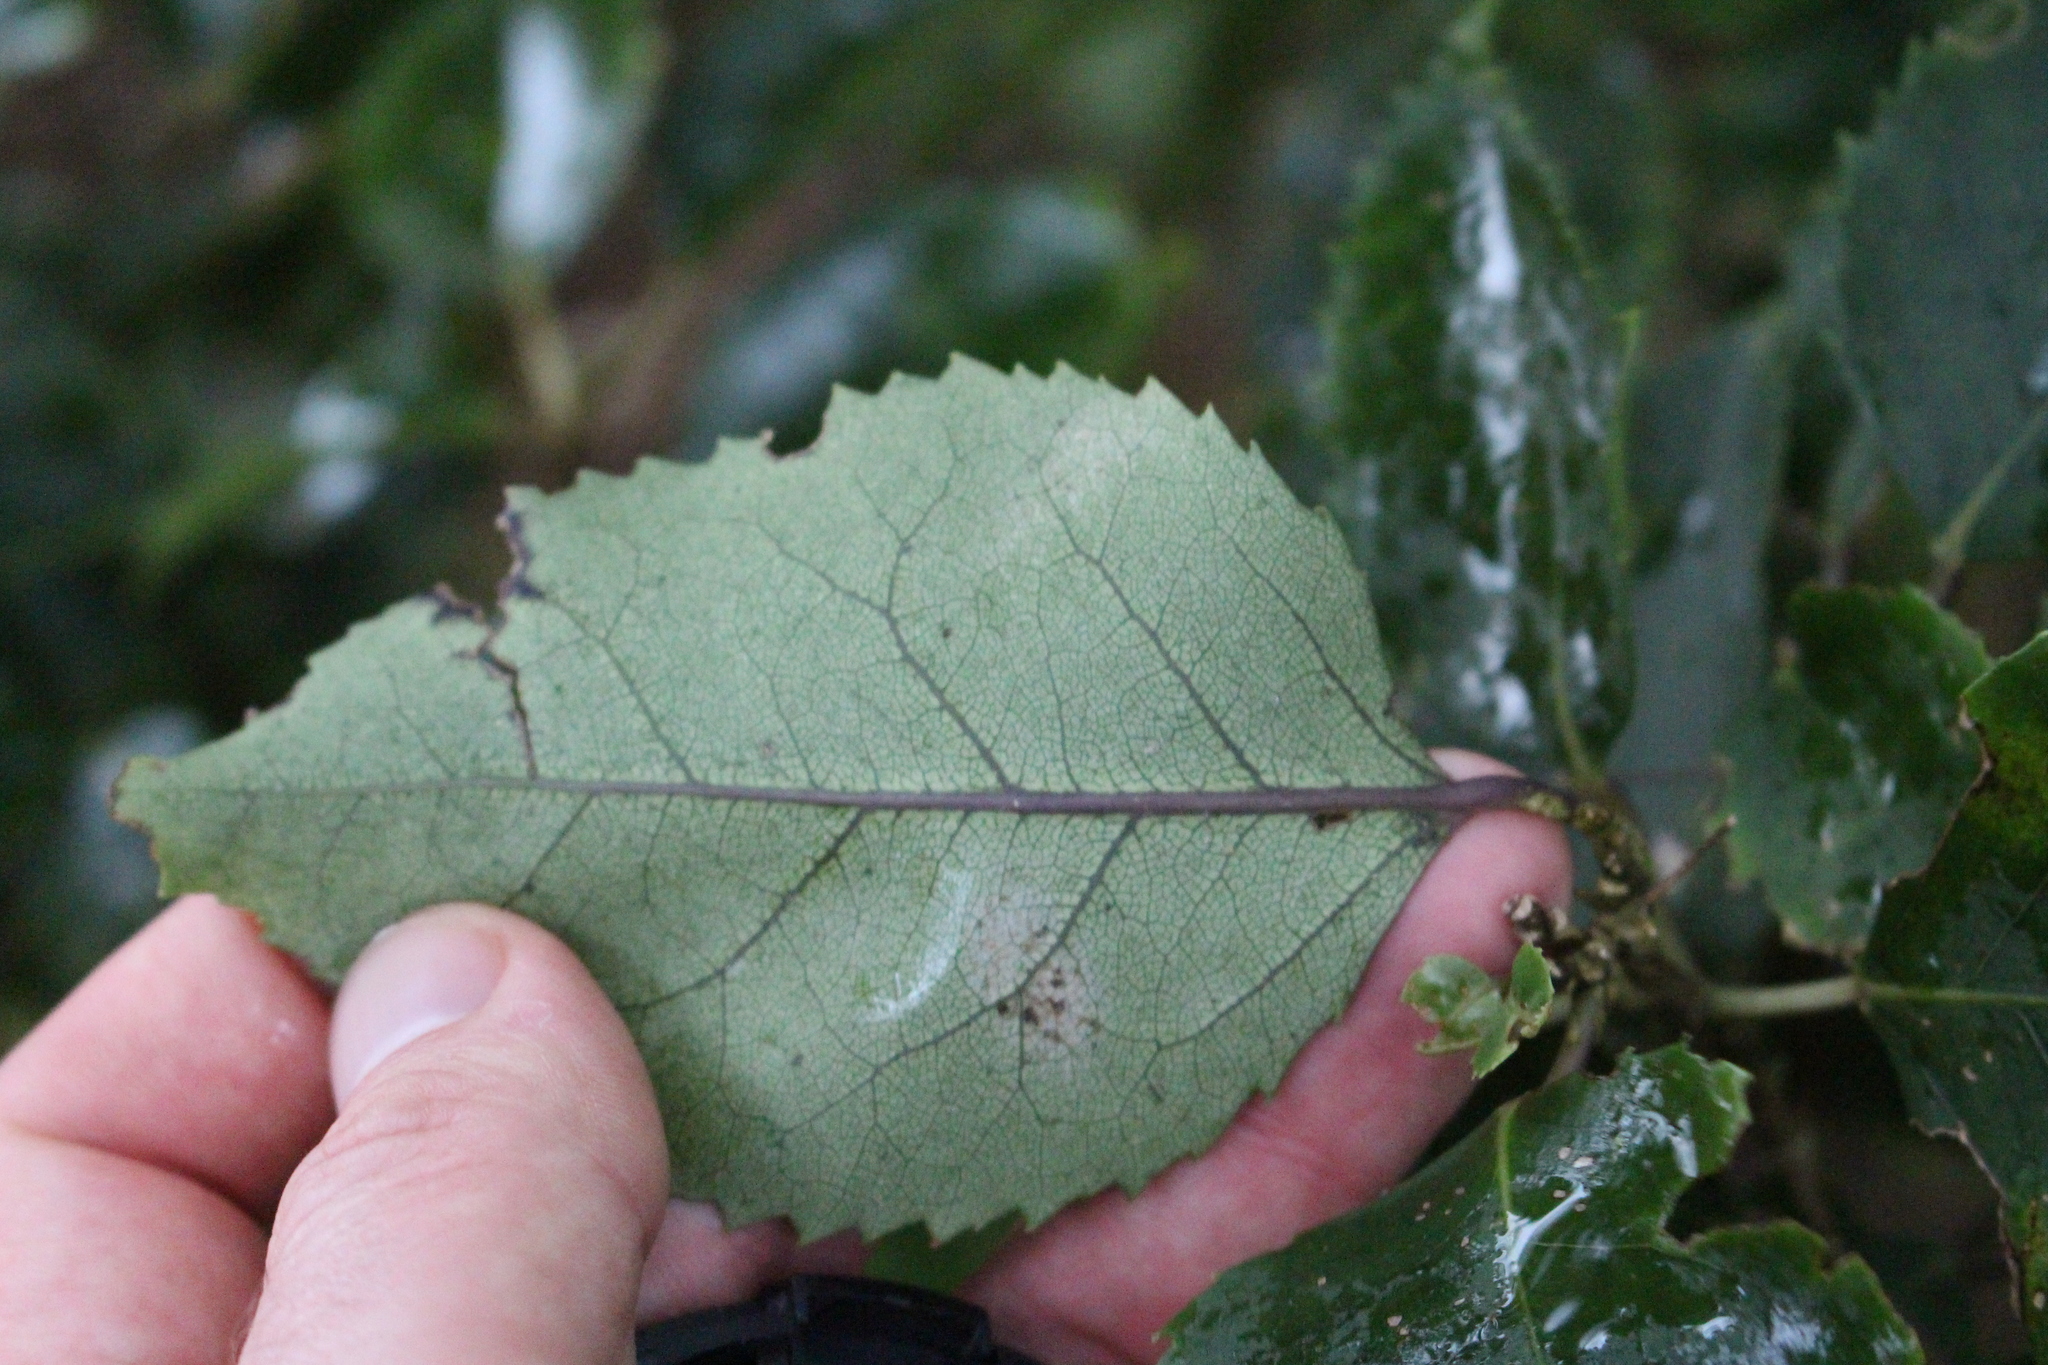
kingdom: Plantae
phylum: Tracheophyta
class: Magnoliopsida
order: Malvales
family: Malvaceae
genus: Hoheria
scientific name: Hoheria populnea
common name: Lacebark
